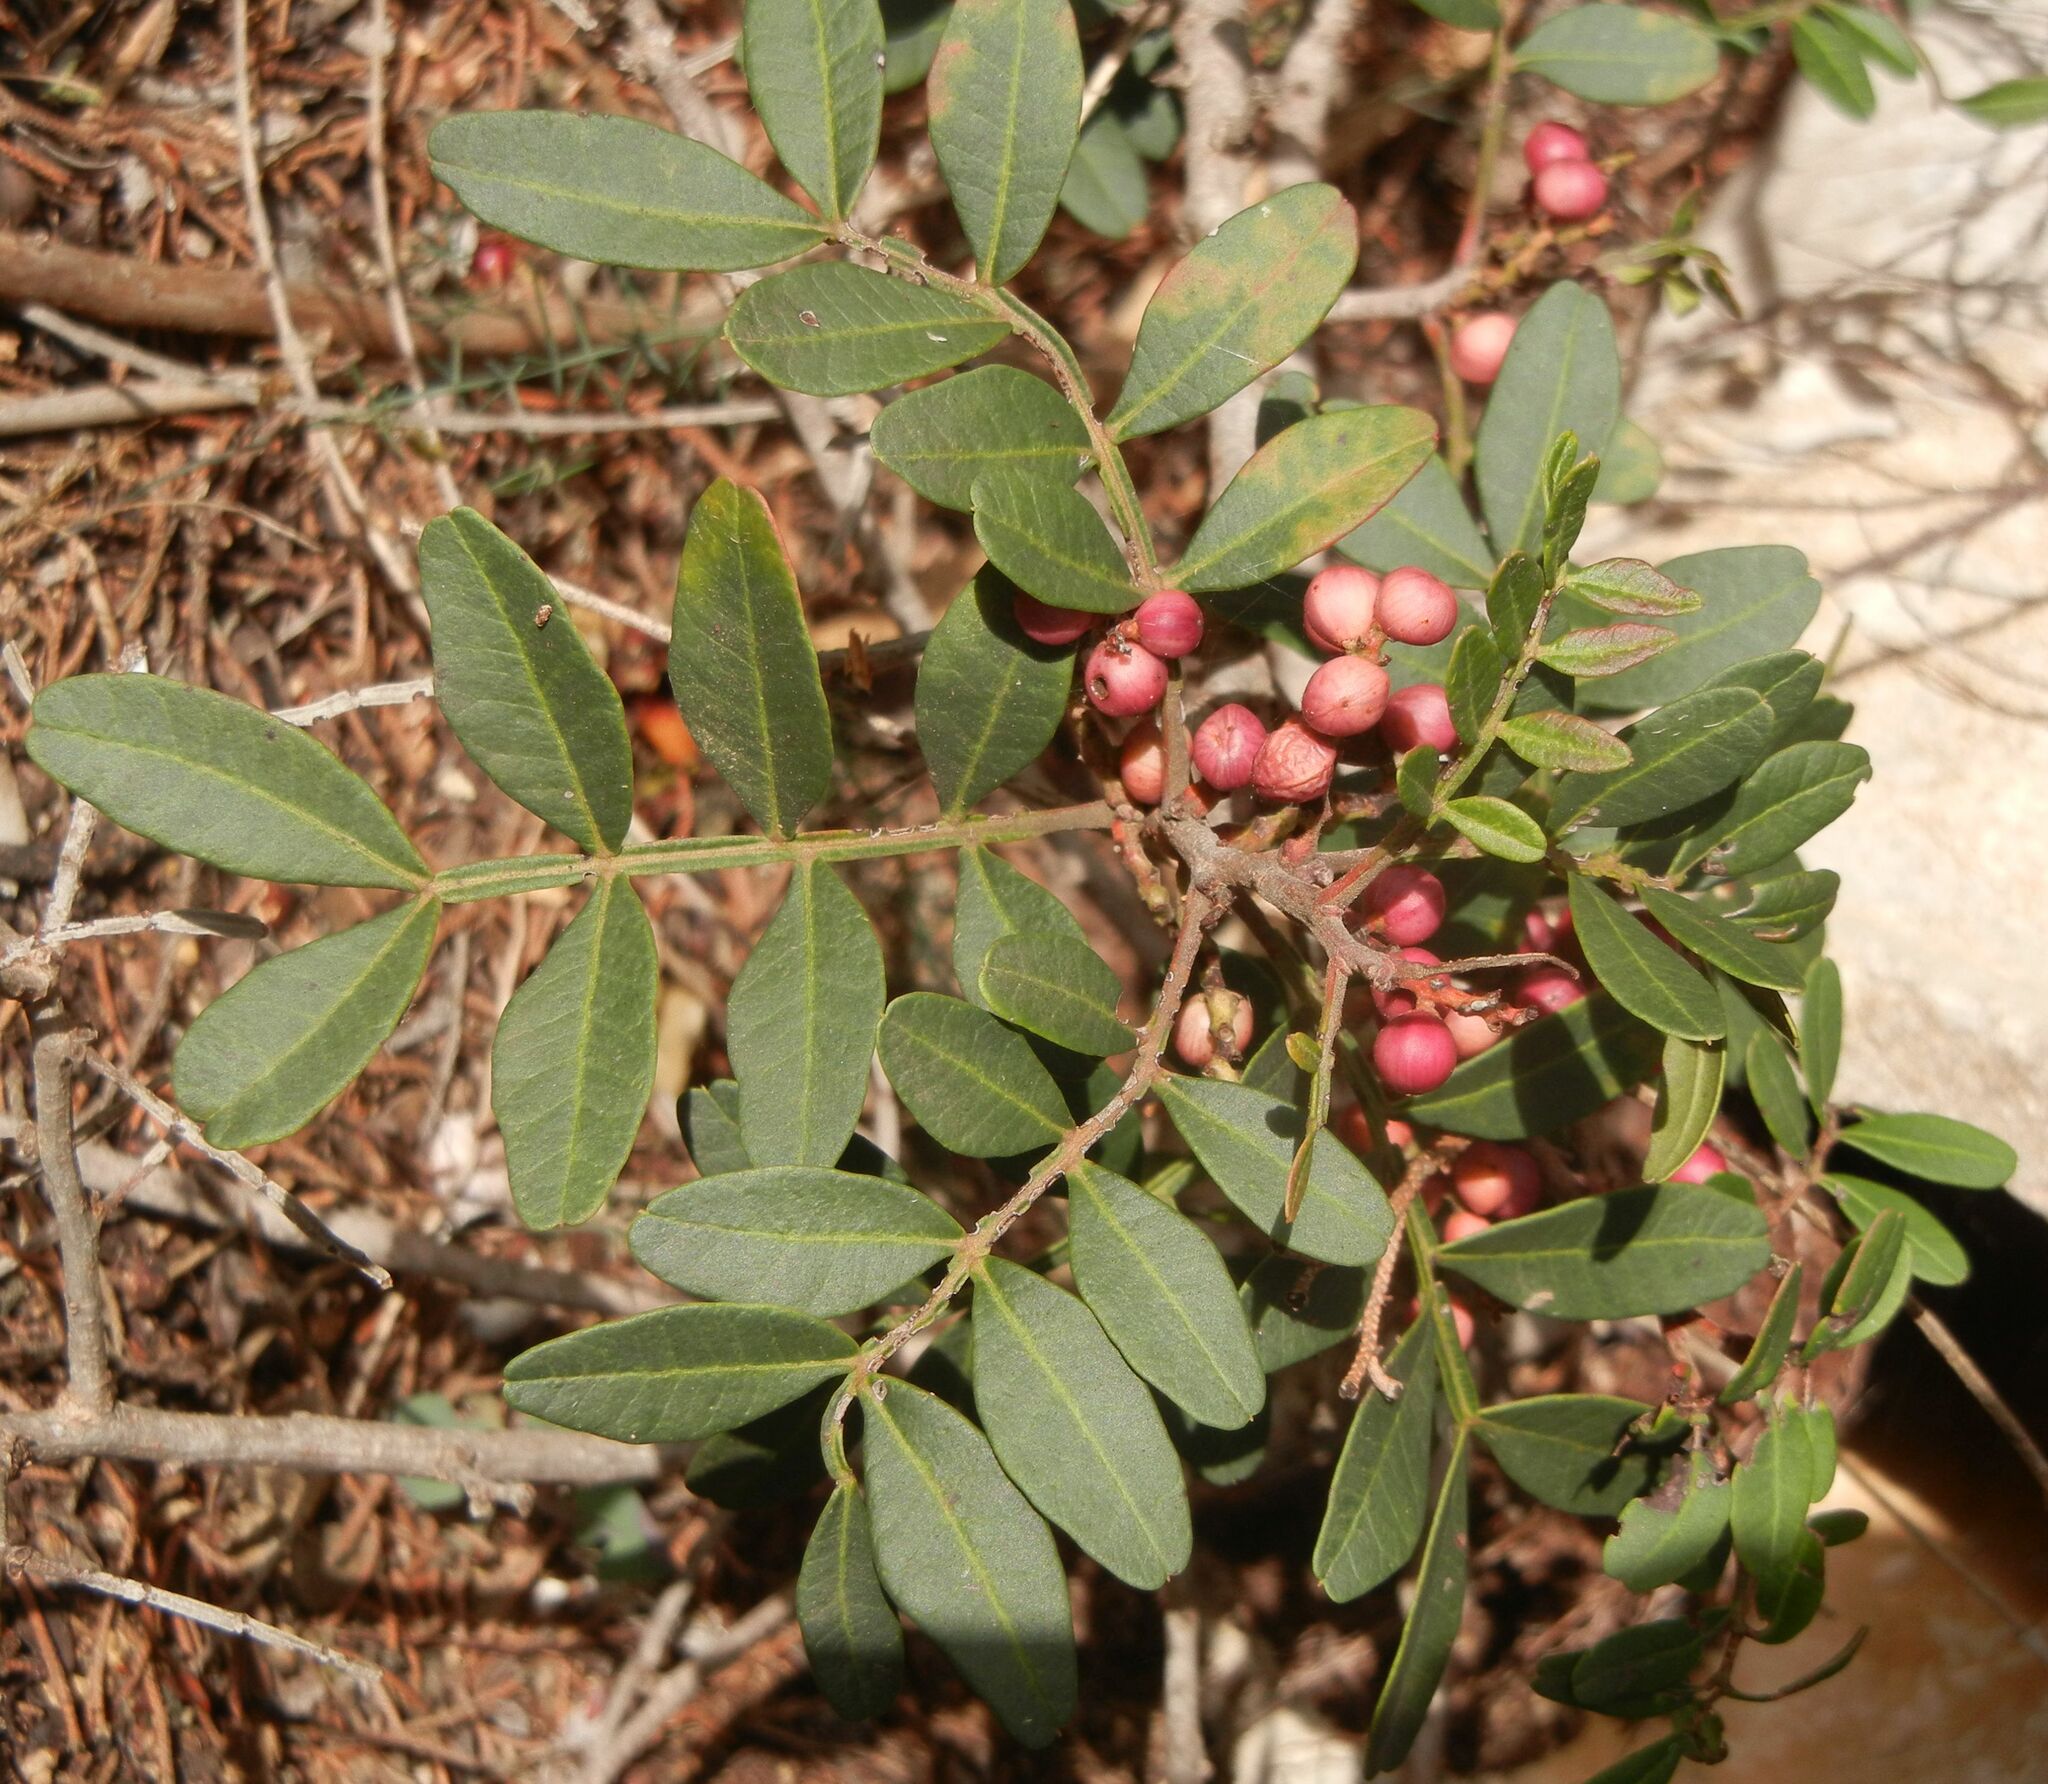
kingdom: Plantae
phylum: Tracheophyta
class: Magnoliopsida
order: Sapindales
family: Anacardiaceae
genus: Pistacia
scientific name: Pistacia lentiscus
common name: Lentisk
